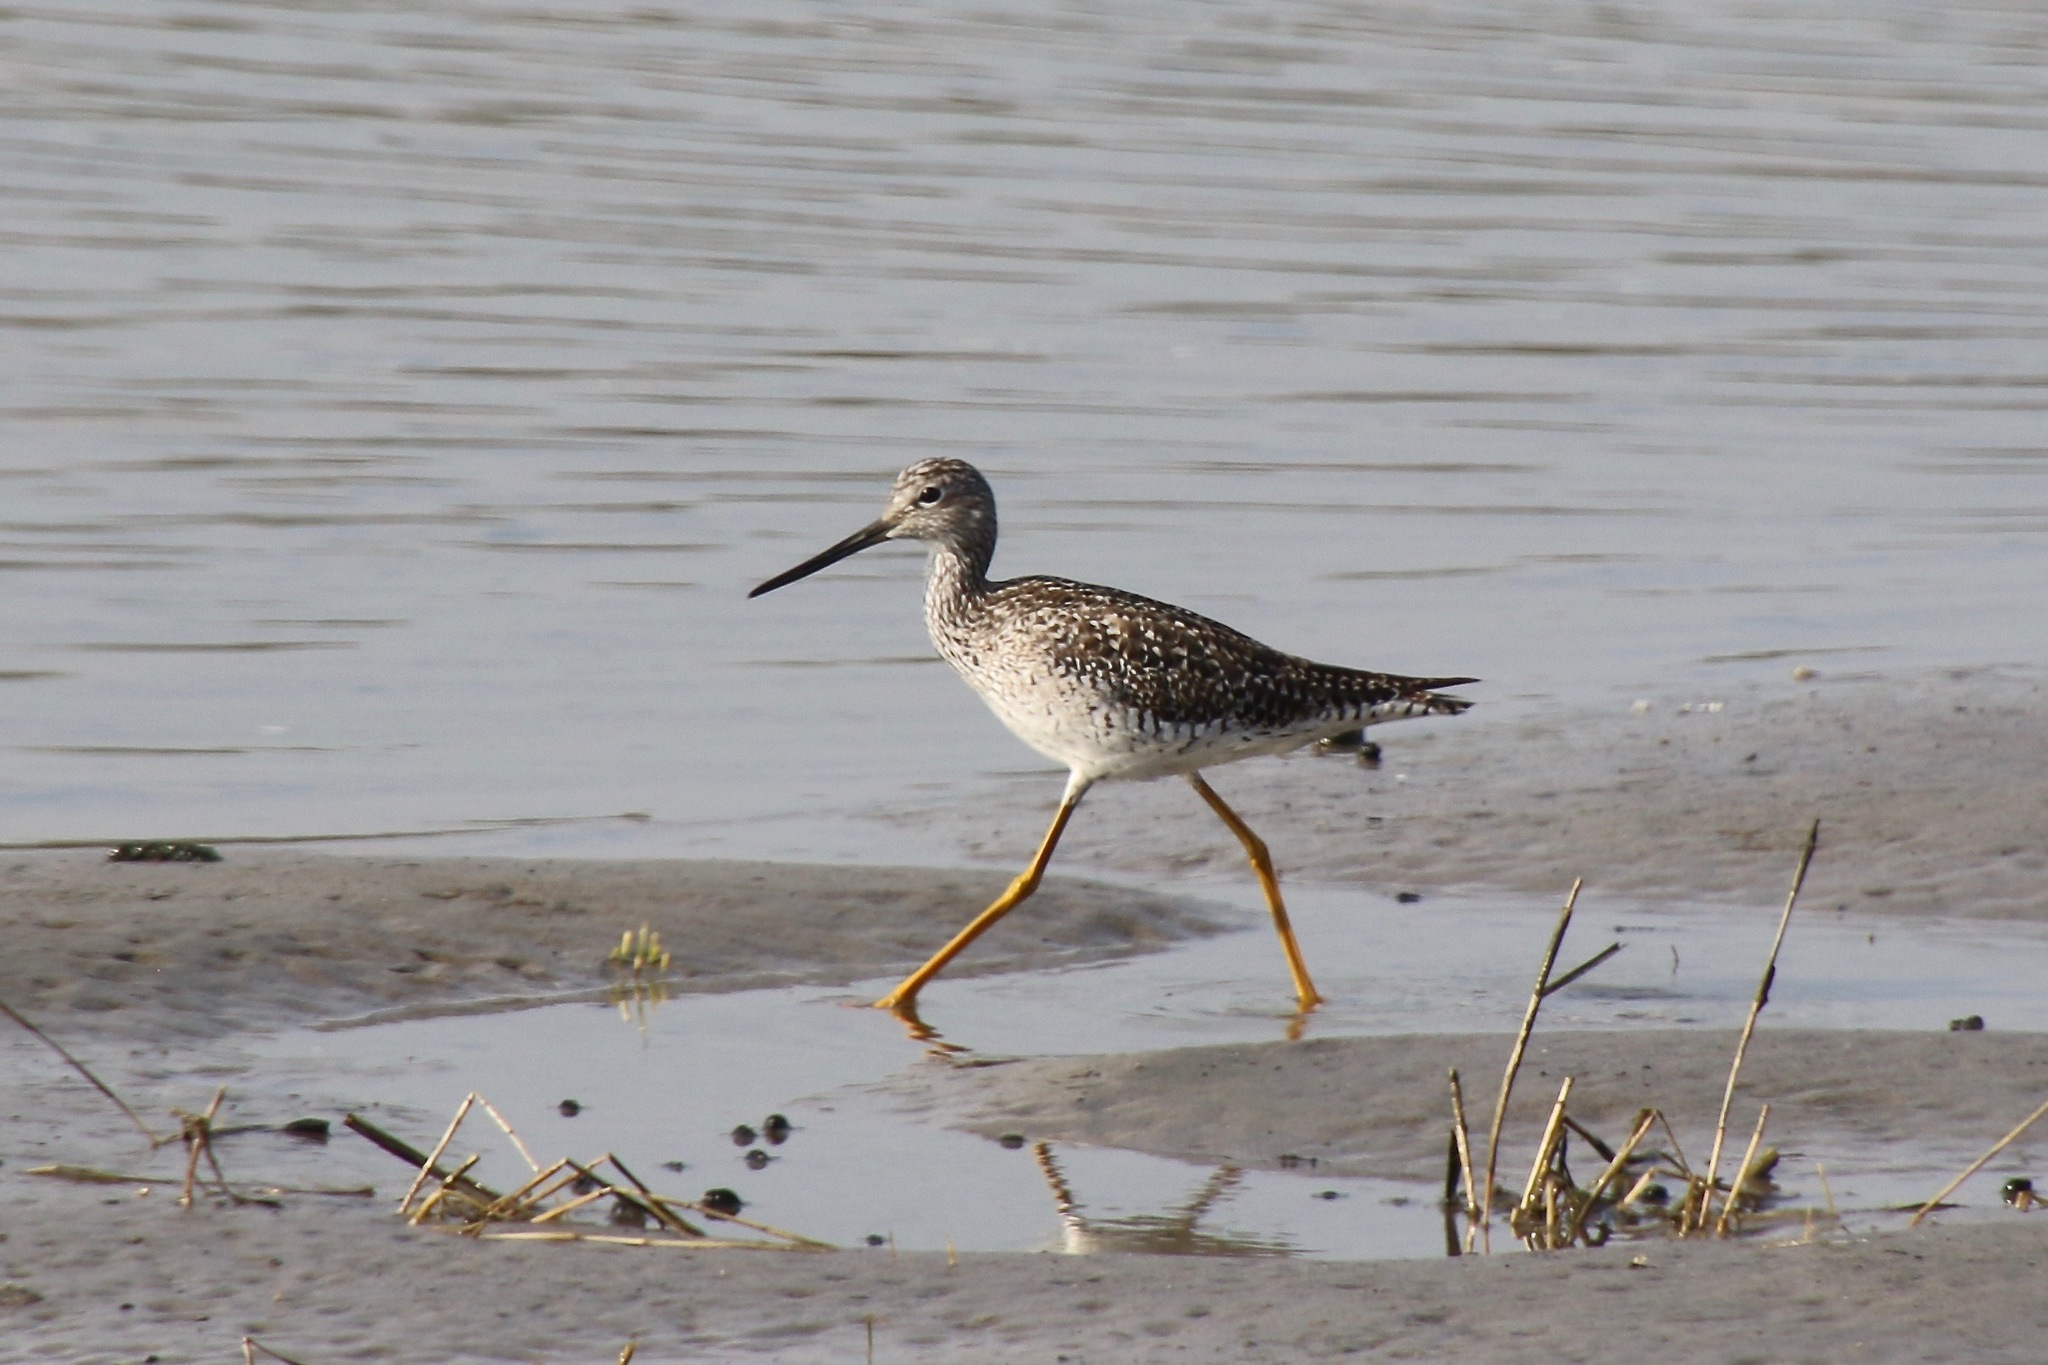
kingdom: Animalia
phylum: Chordata
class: Aves
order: Charadriiformes
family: Scolopacidae
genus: Tringa
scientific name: Tringa melanoleuca
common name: Greater yellowlegs
